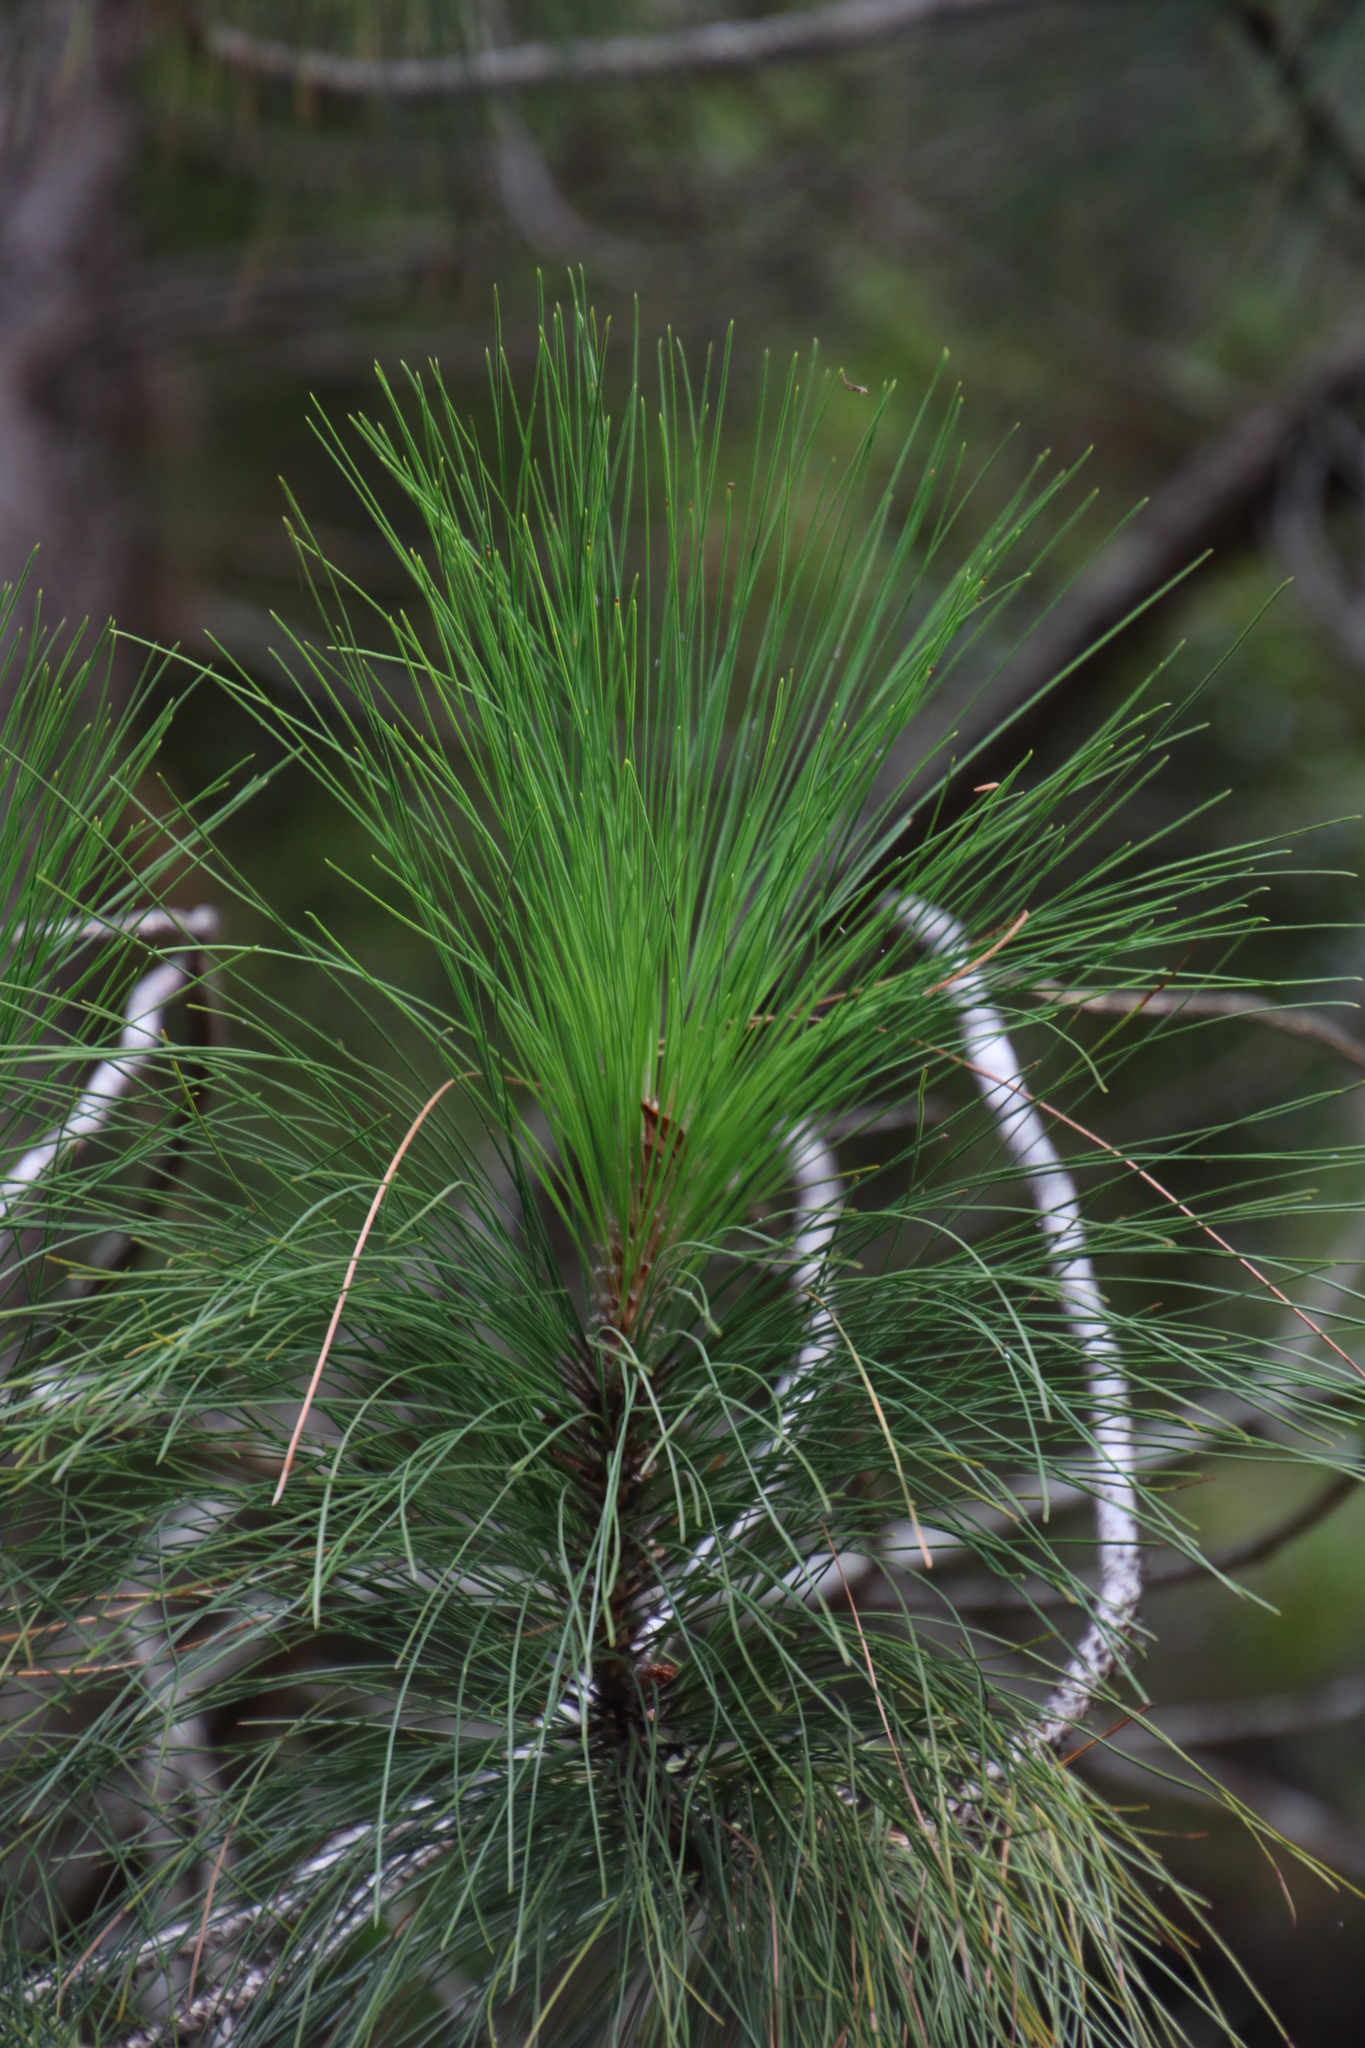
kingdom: Plantae
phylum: Tracheophyta
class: Pinopsida
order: Pinales
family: Pinaceae
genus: Pinus
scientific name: Pinus canariensis
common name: Canary islands pine
